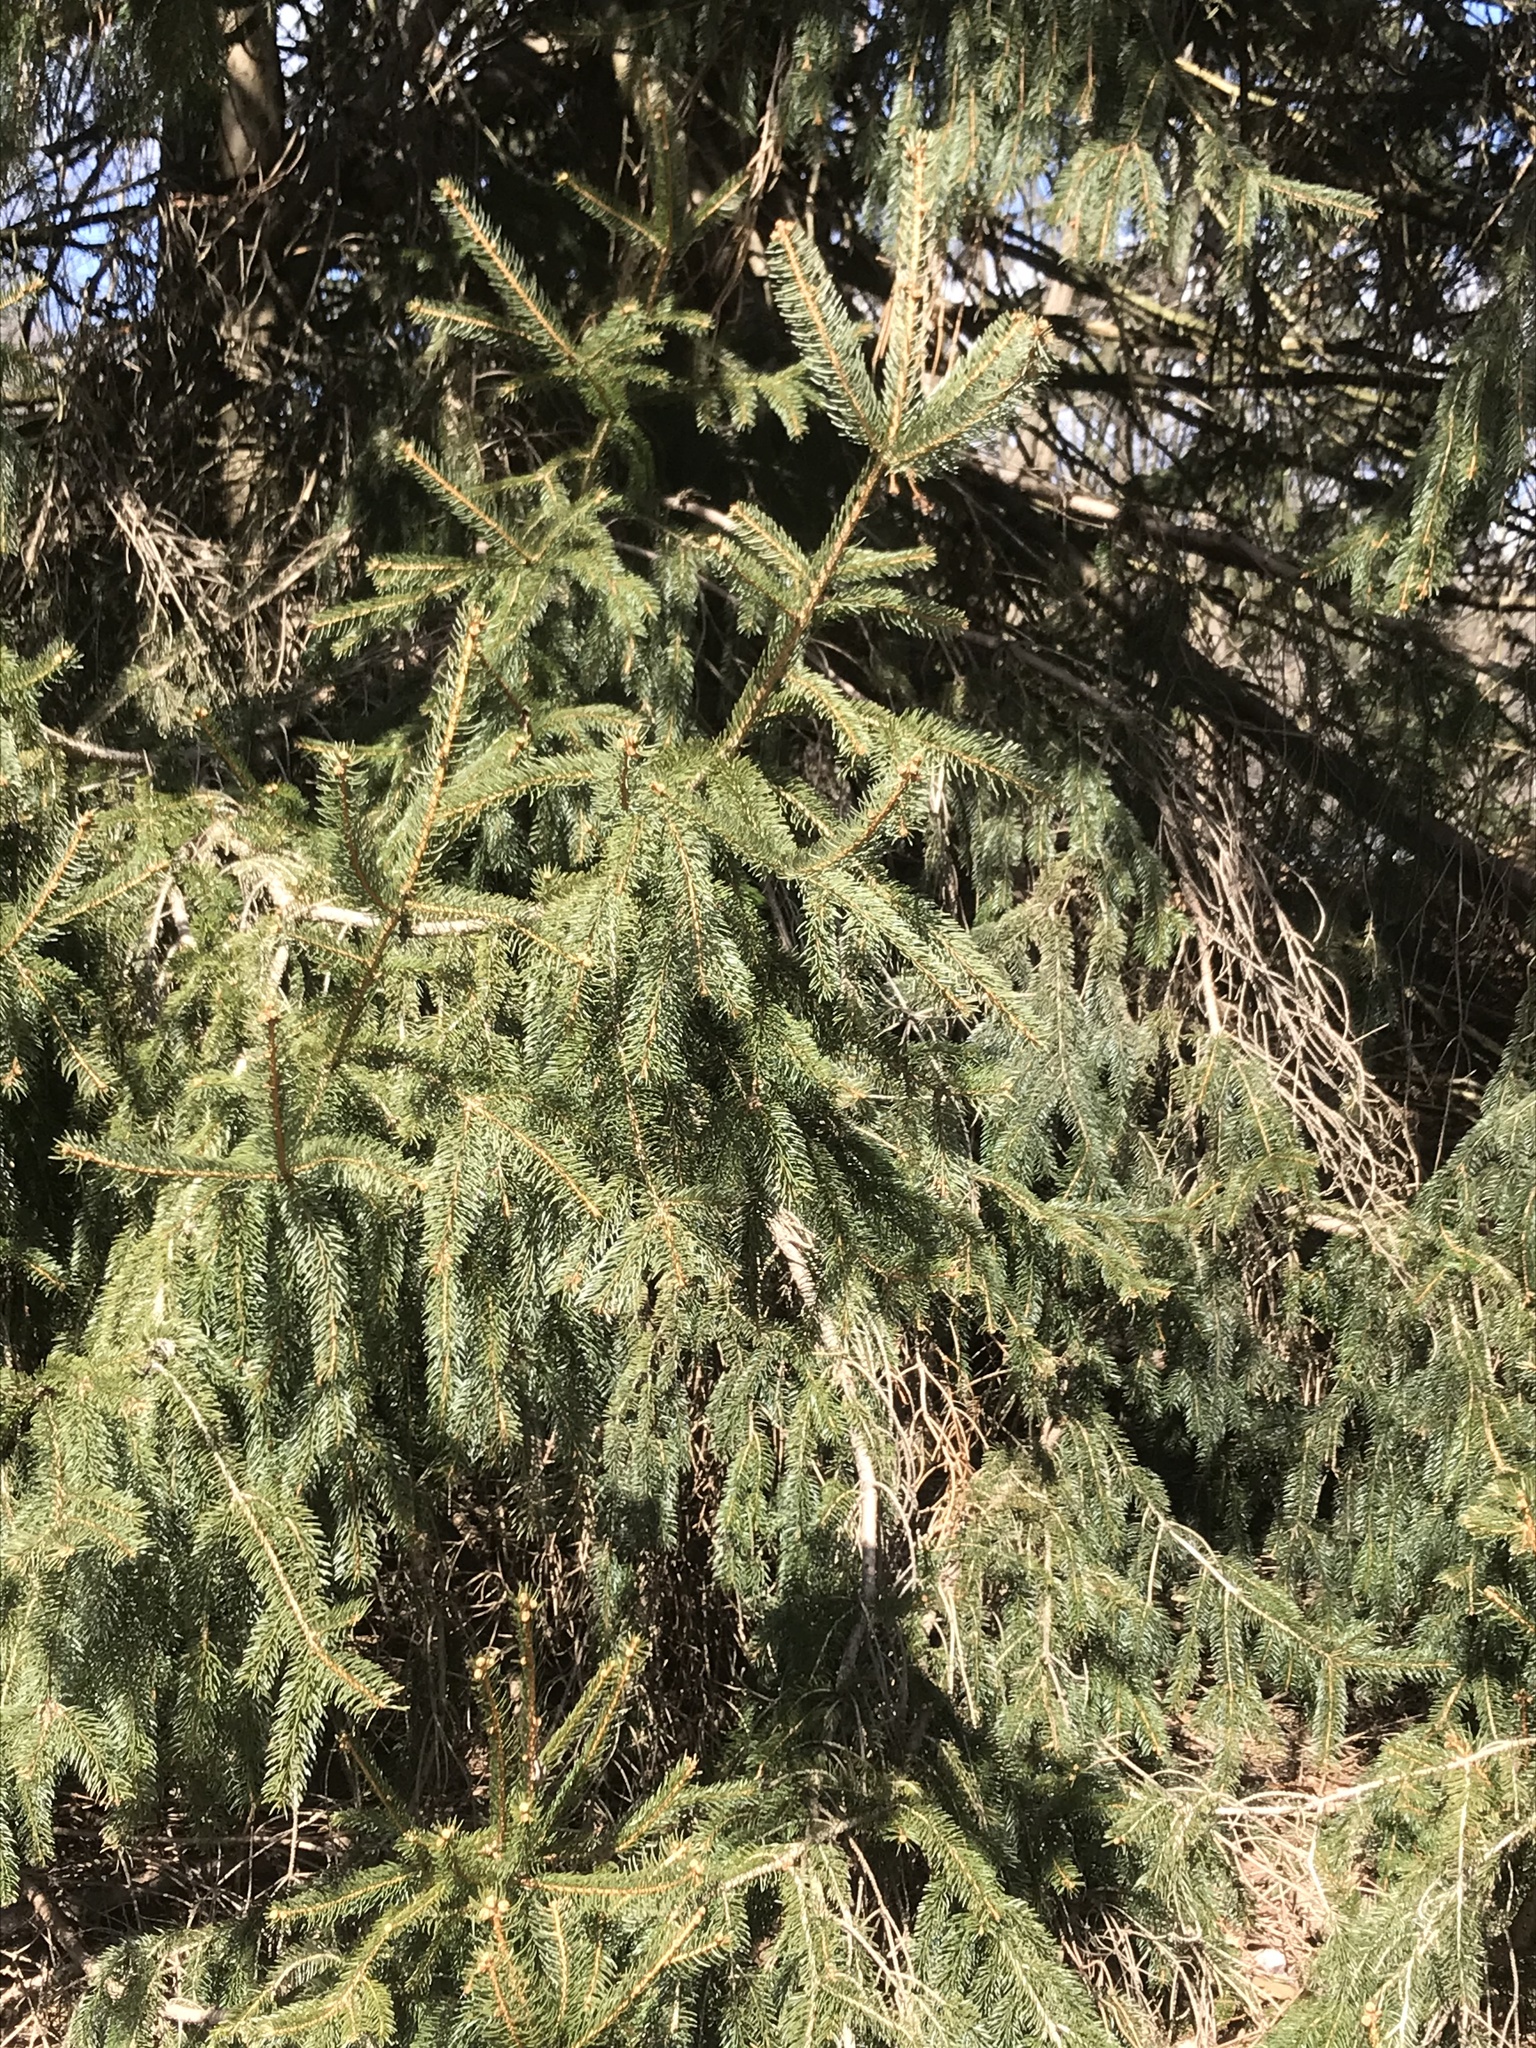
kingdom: Plantae
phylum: Tracheophyta
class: Pinopsida
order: Pinales
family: Pinaceae
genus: Picea
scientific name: Picea abies
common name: Norway spruce
